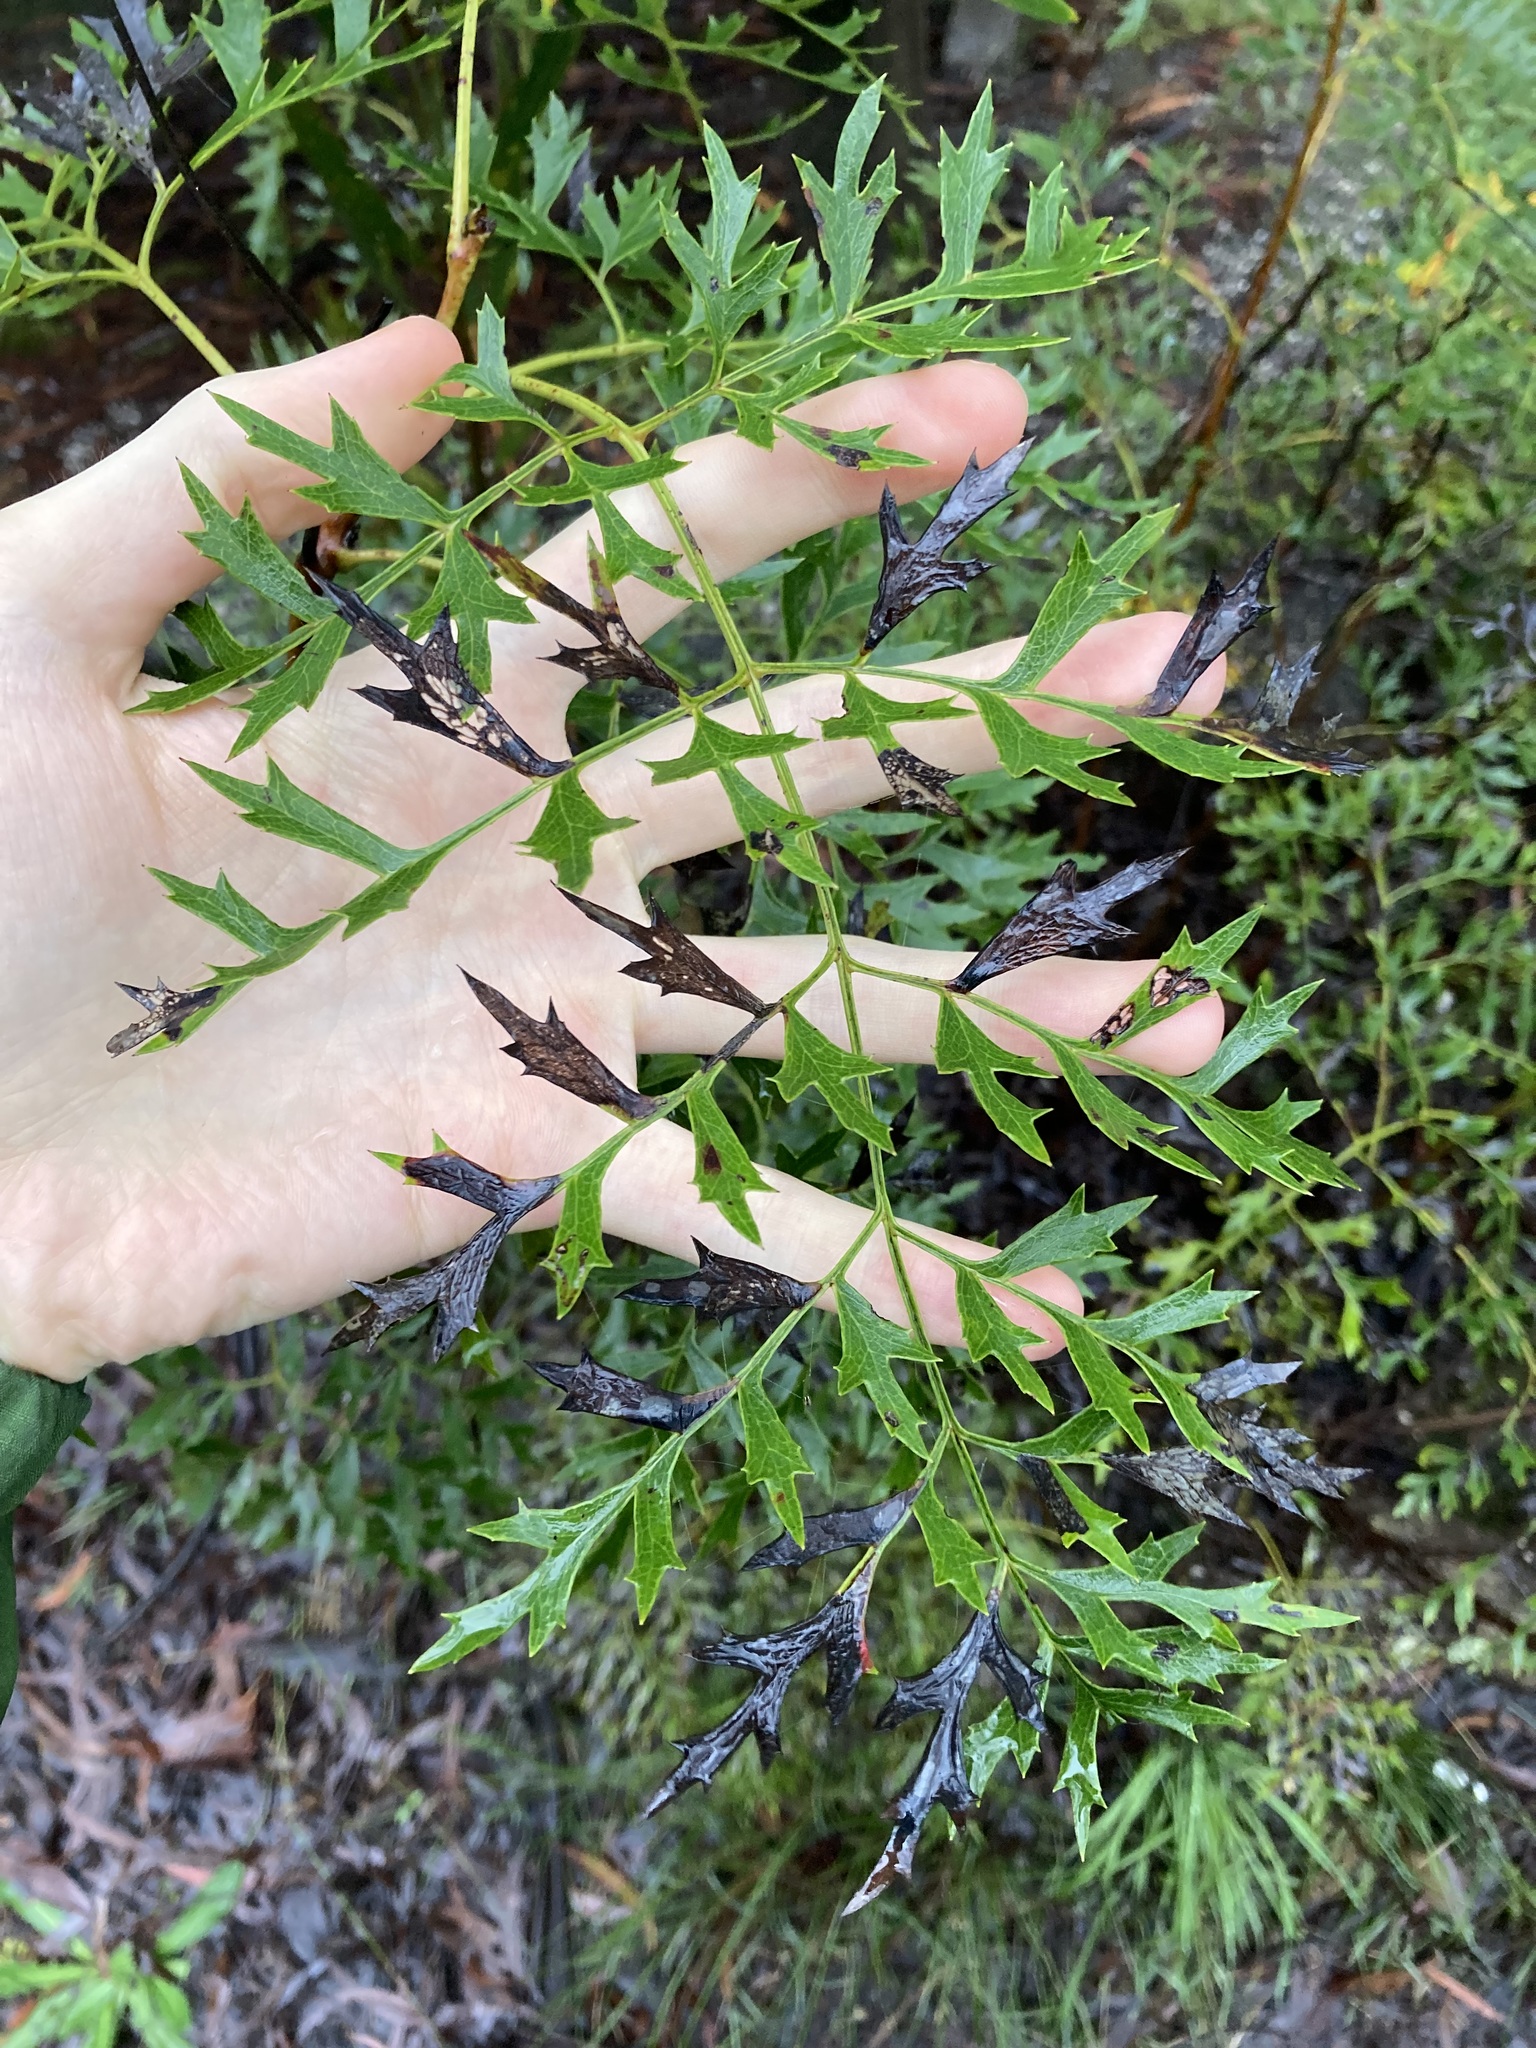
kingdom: Plantae
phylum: Tracheophyta
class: Magnoliopsida
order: Proteales
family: Proteaceae
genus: Lomatia
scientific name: Lomatia silaifolia
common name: Crinklebush
